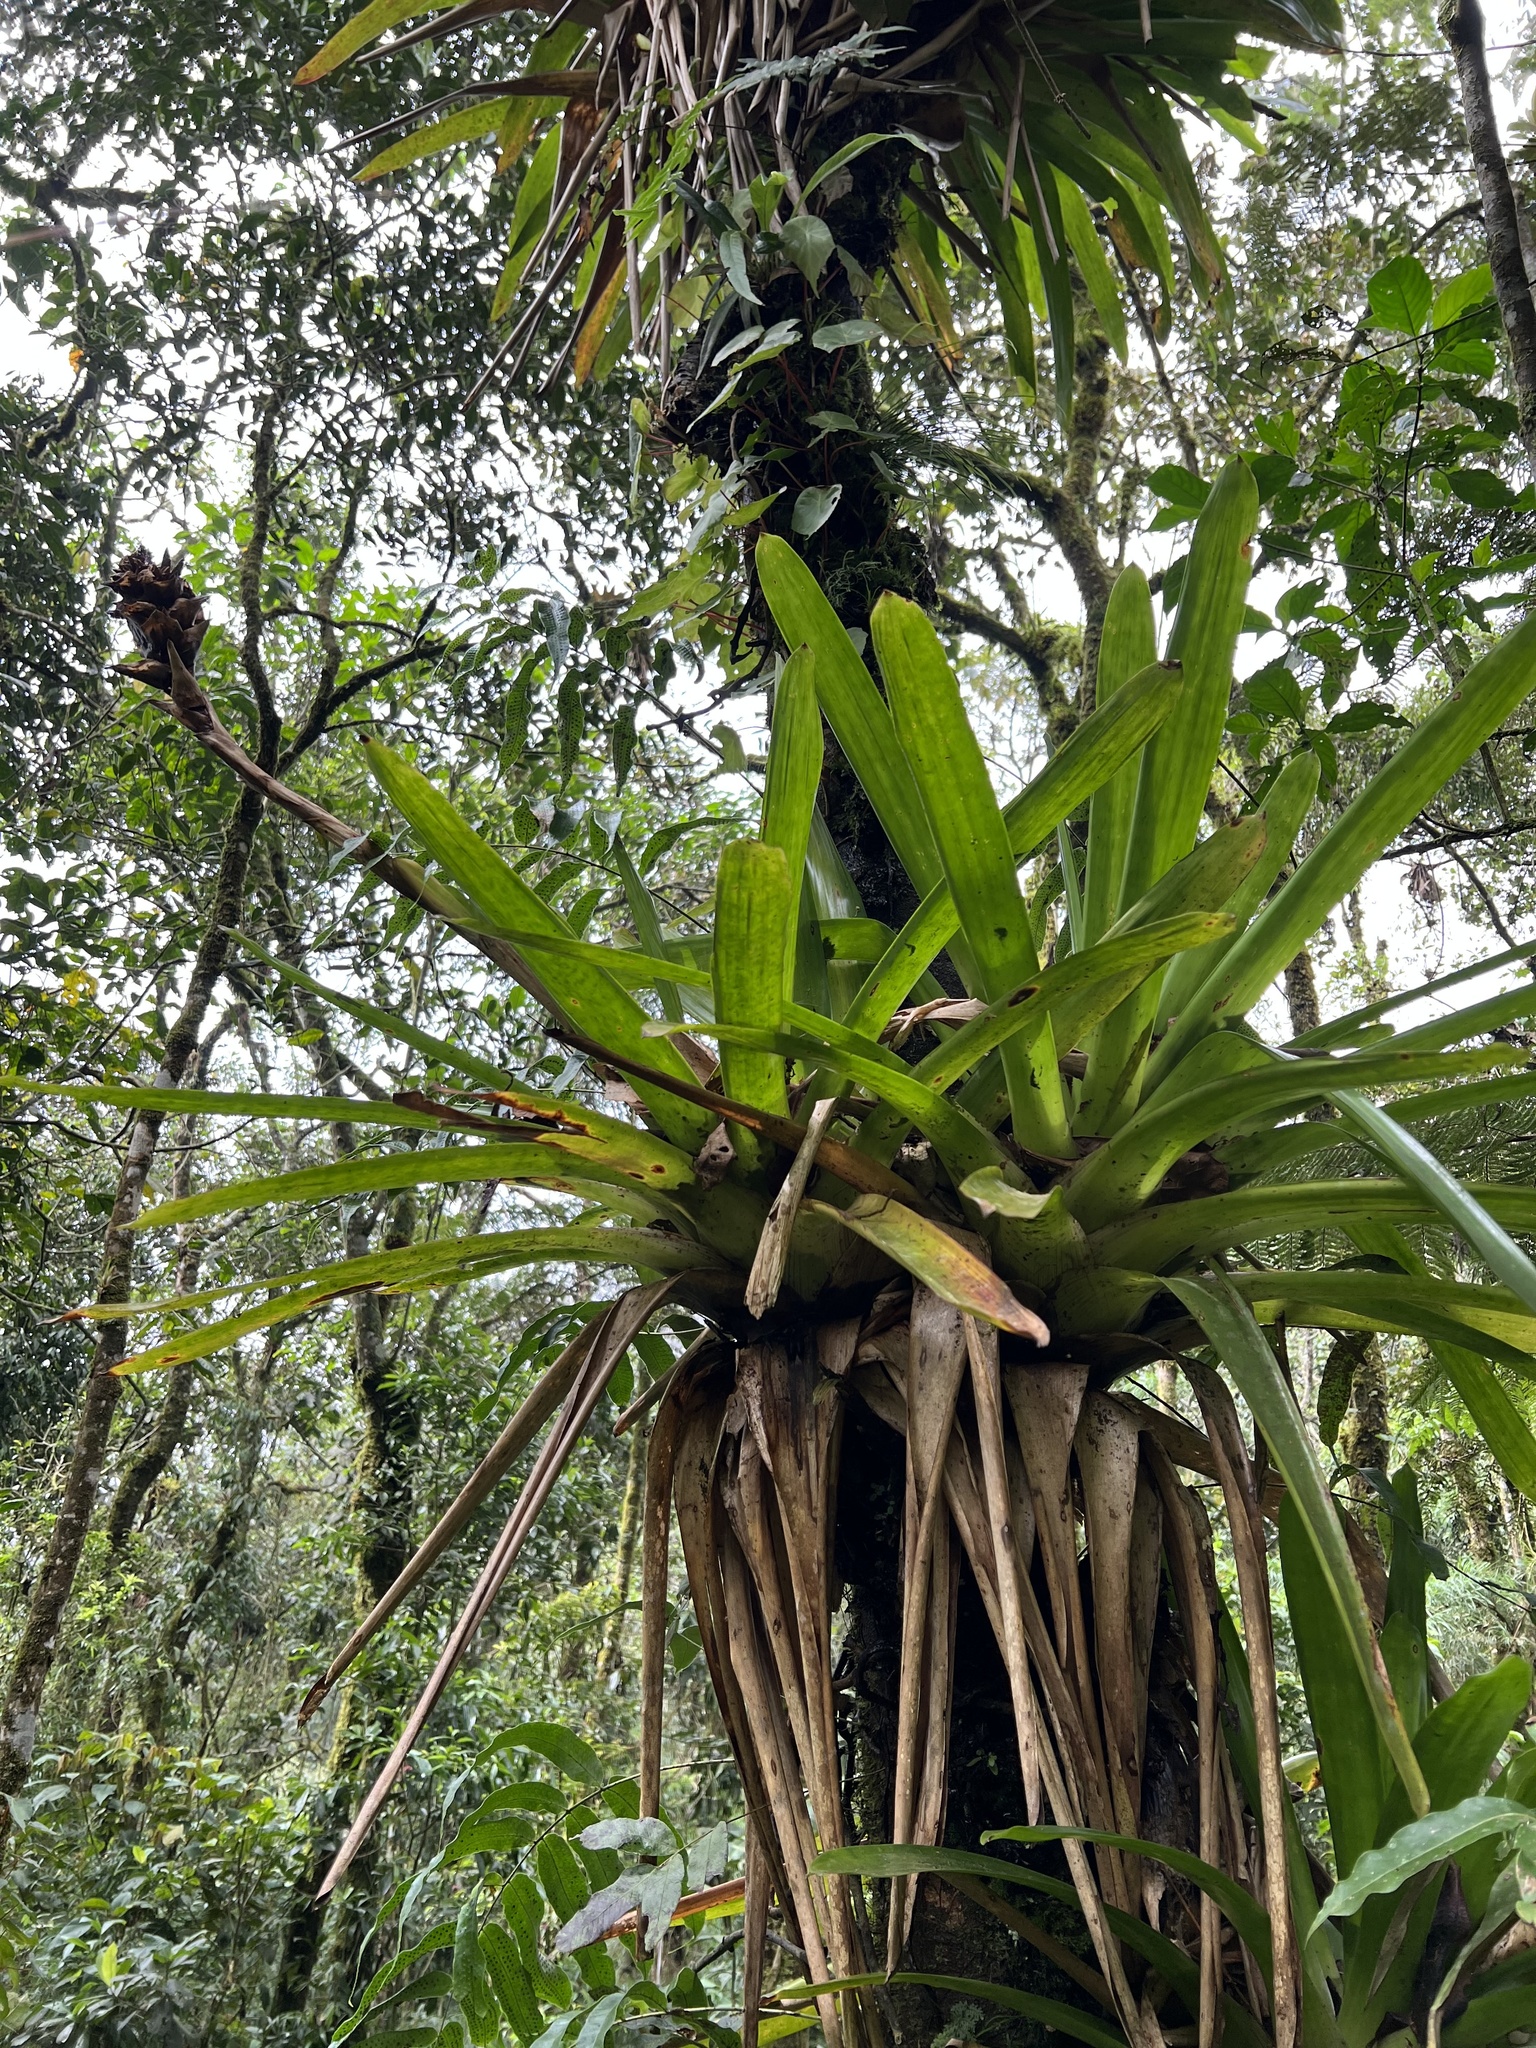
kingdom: Plantae
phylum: Tracheophyta
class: Liliopsida
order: Poales
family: Bromeliaceae
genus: Guzmania
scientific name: Guzmania mitis
